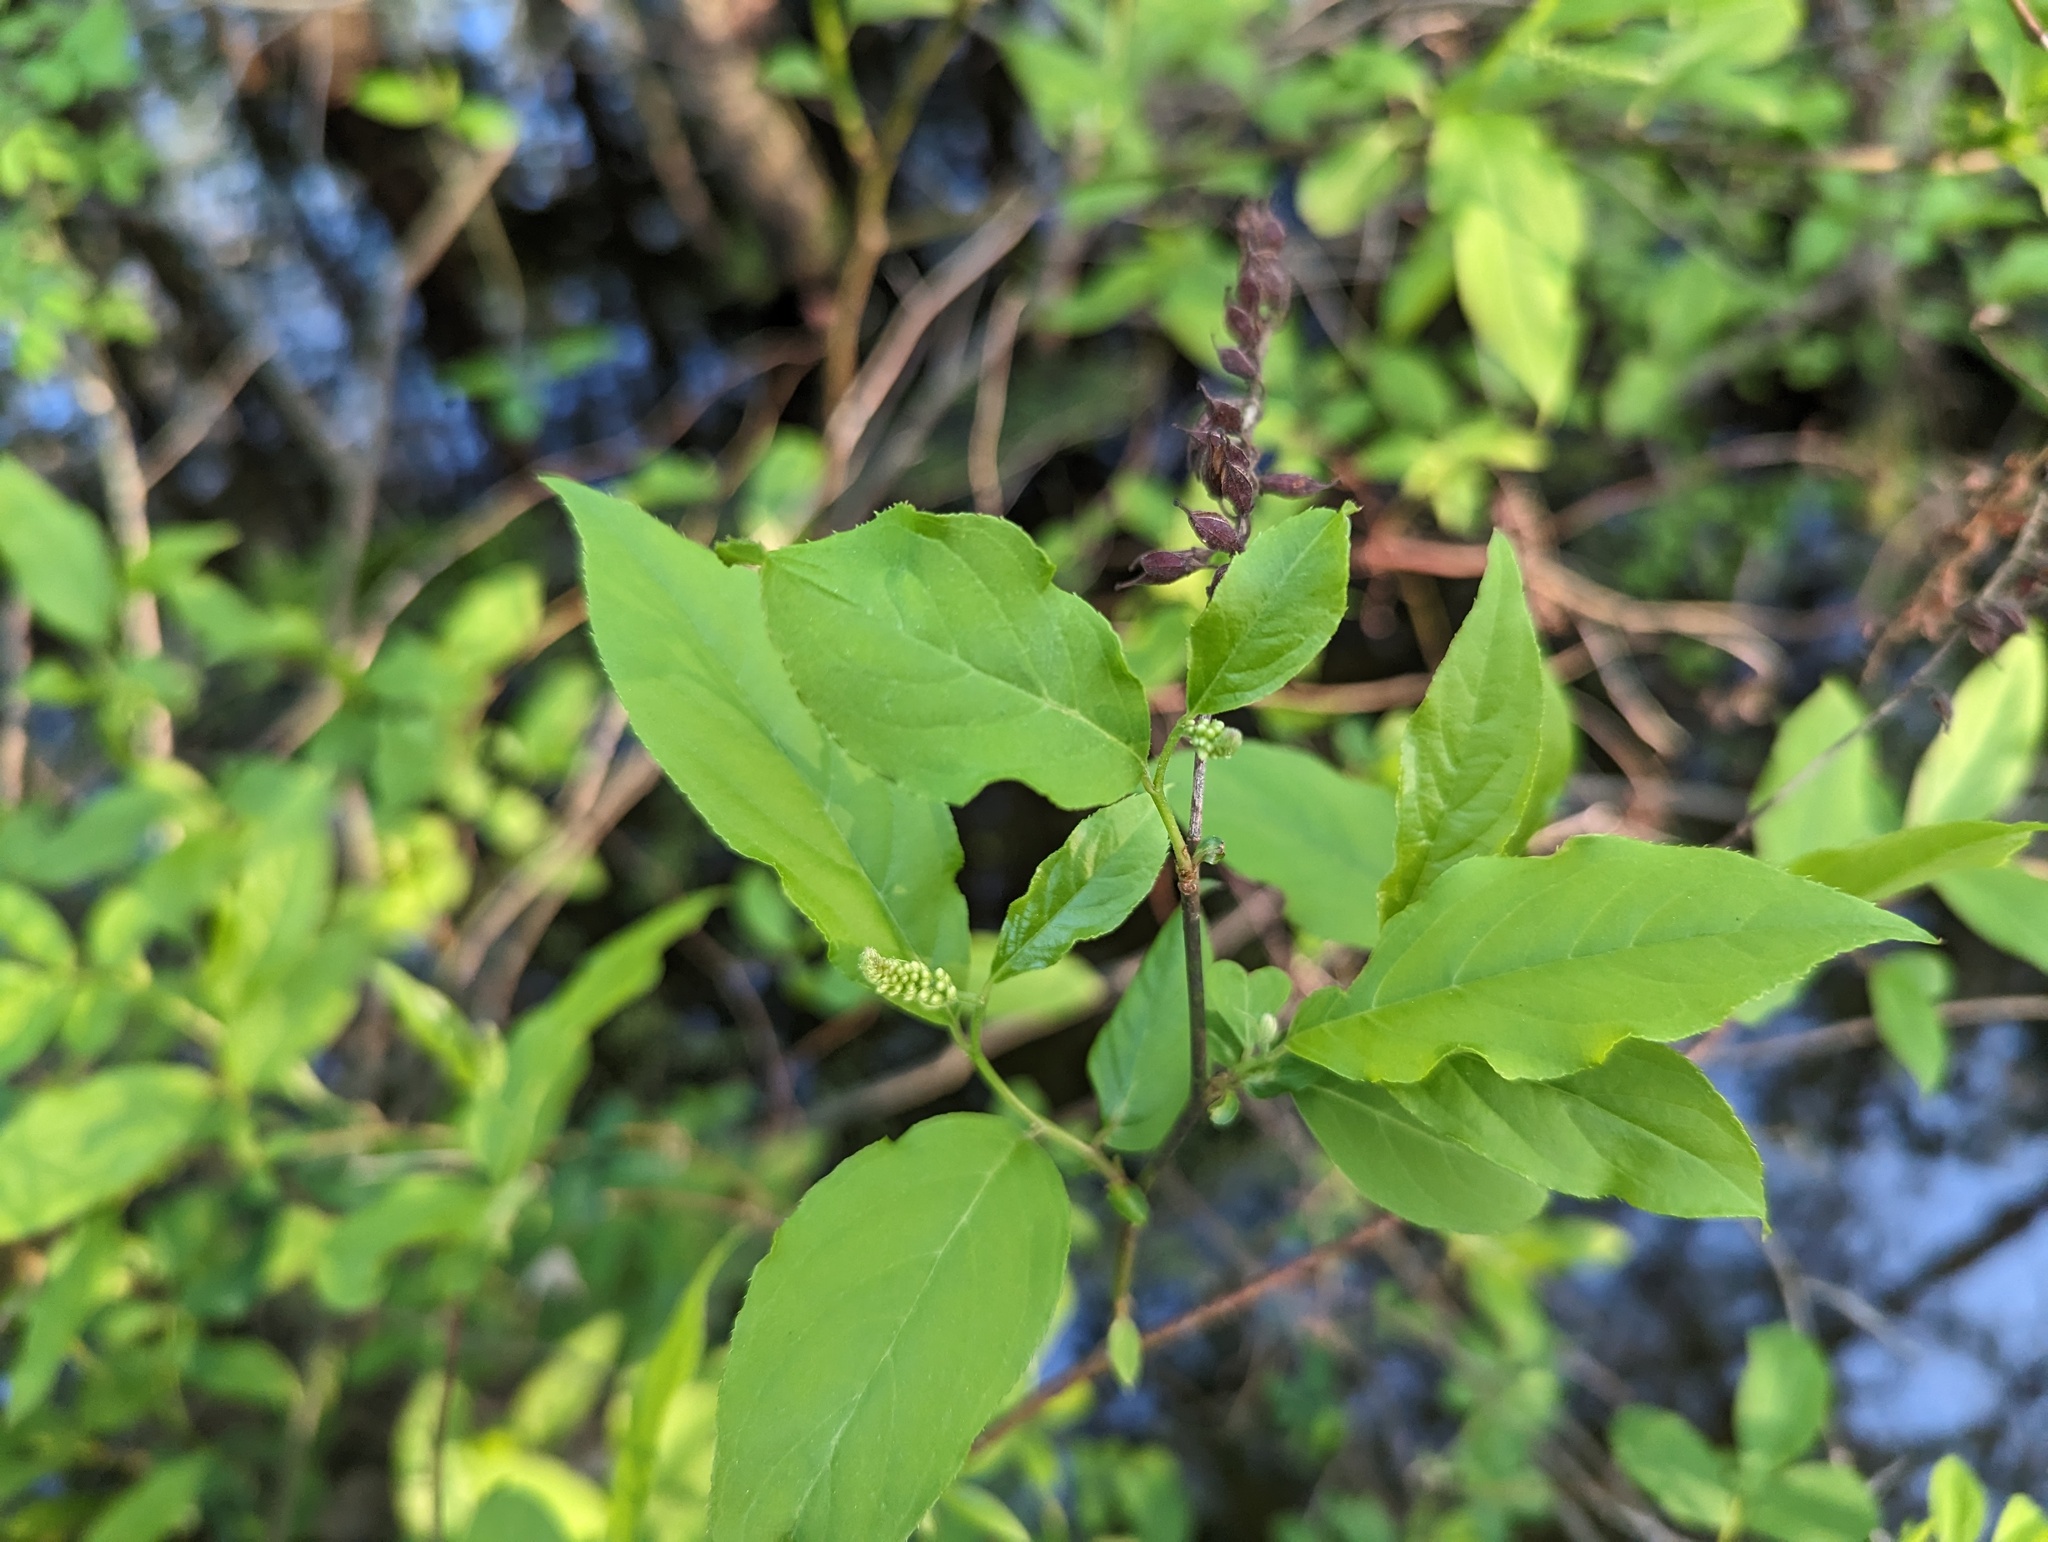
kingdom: Plantae
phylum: Tracheophyta
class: Magnoliopsida
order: Saxifragales
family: Iteaceae
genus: Itea
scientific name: Itea virginica
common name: Sweetspire
